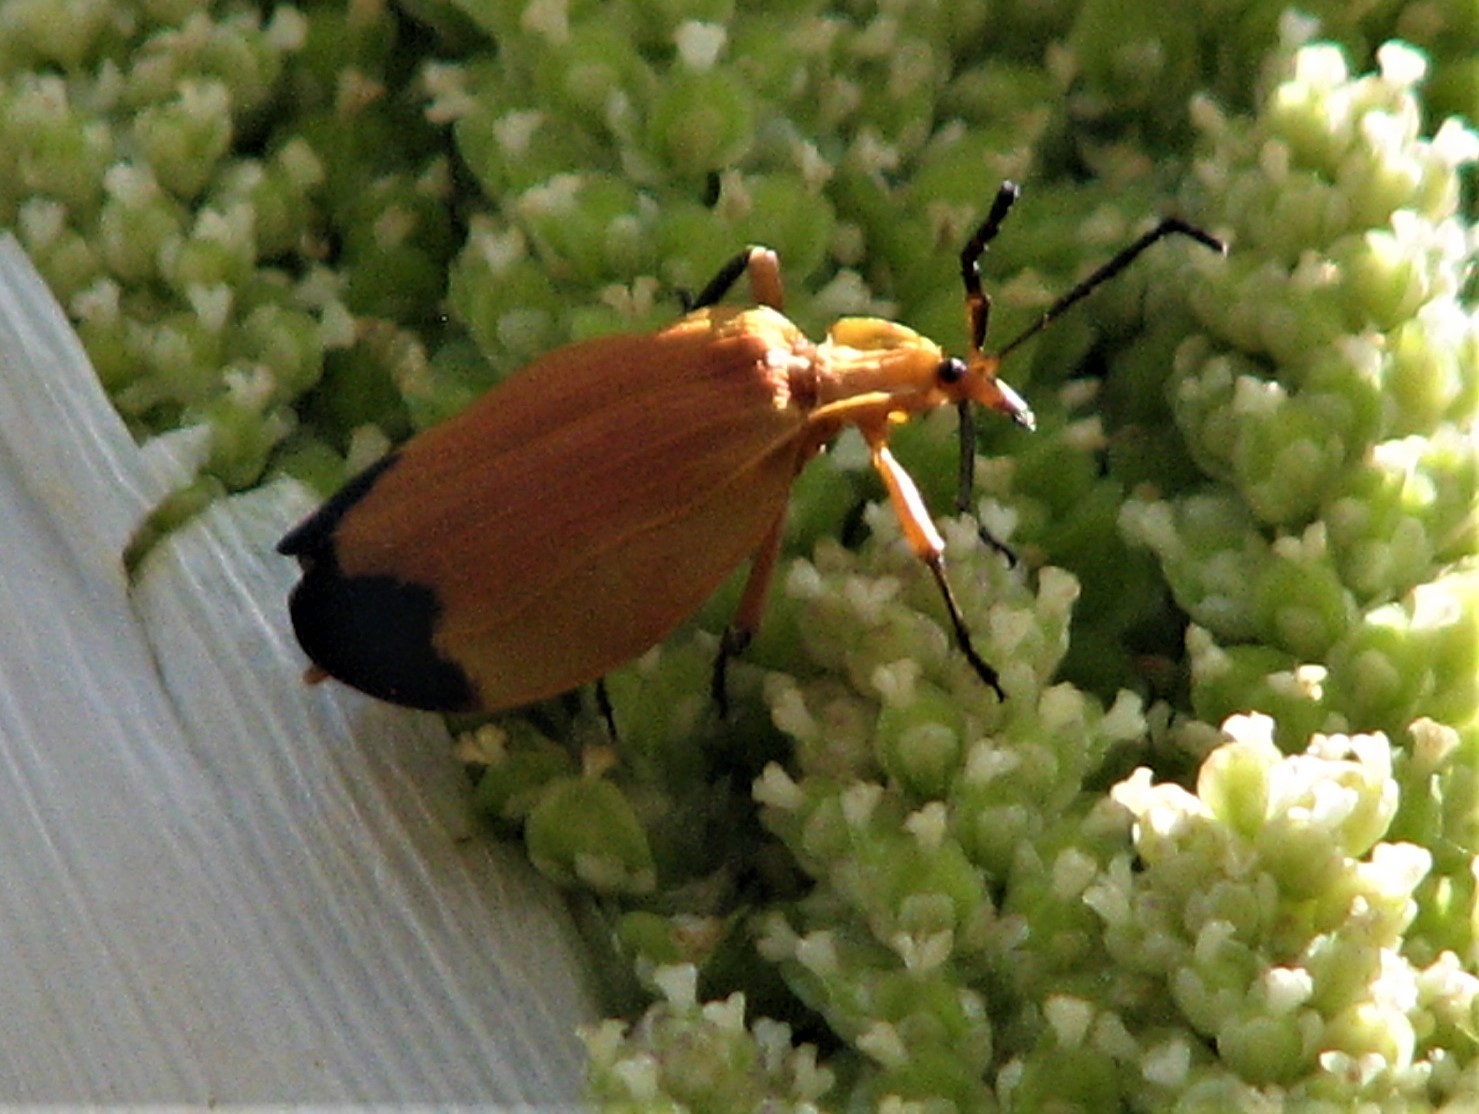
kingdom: Animalia
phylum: Arthropoda
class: Insecta
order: Coleoptera
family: Lycidae
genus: Lycus
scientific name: Lycus fernandezi
